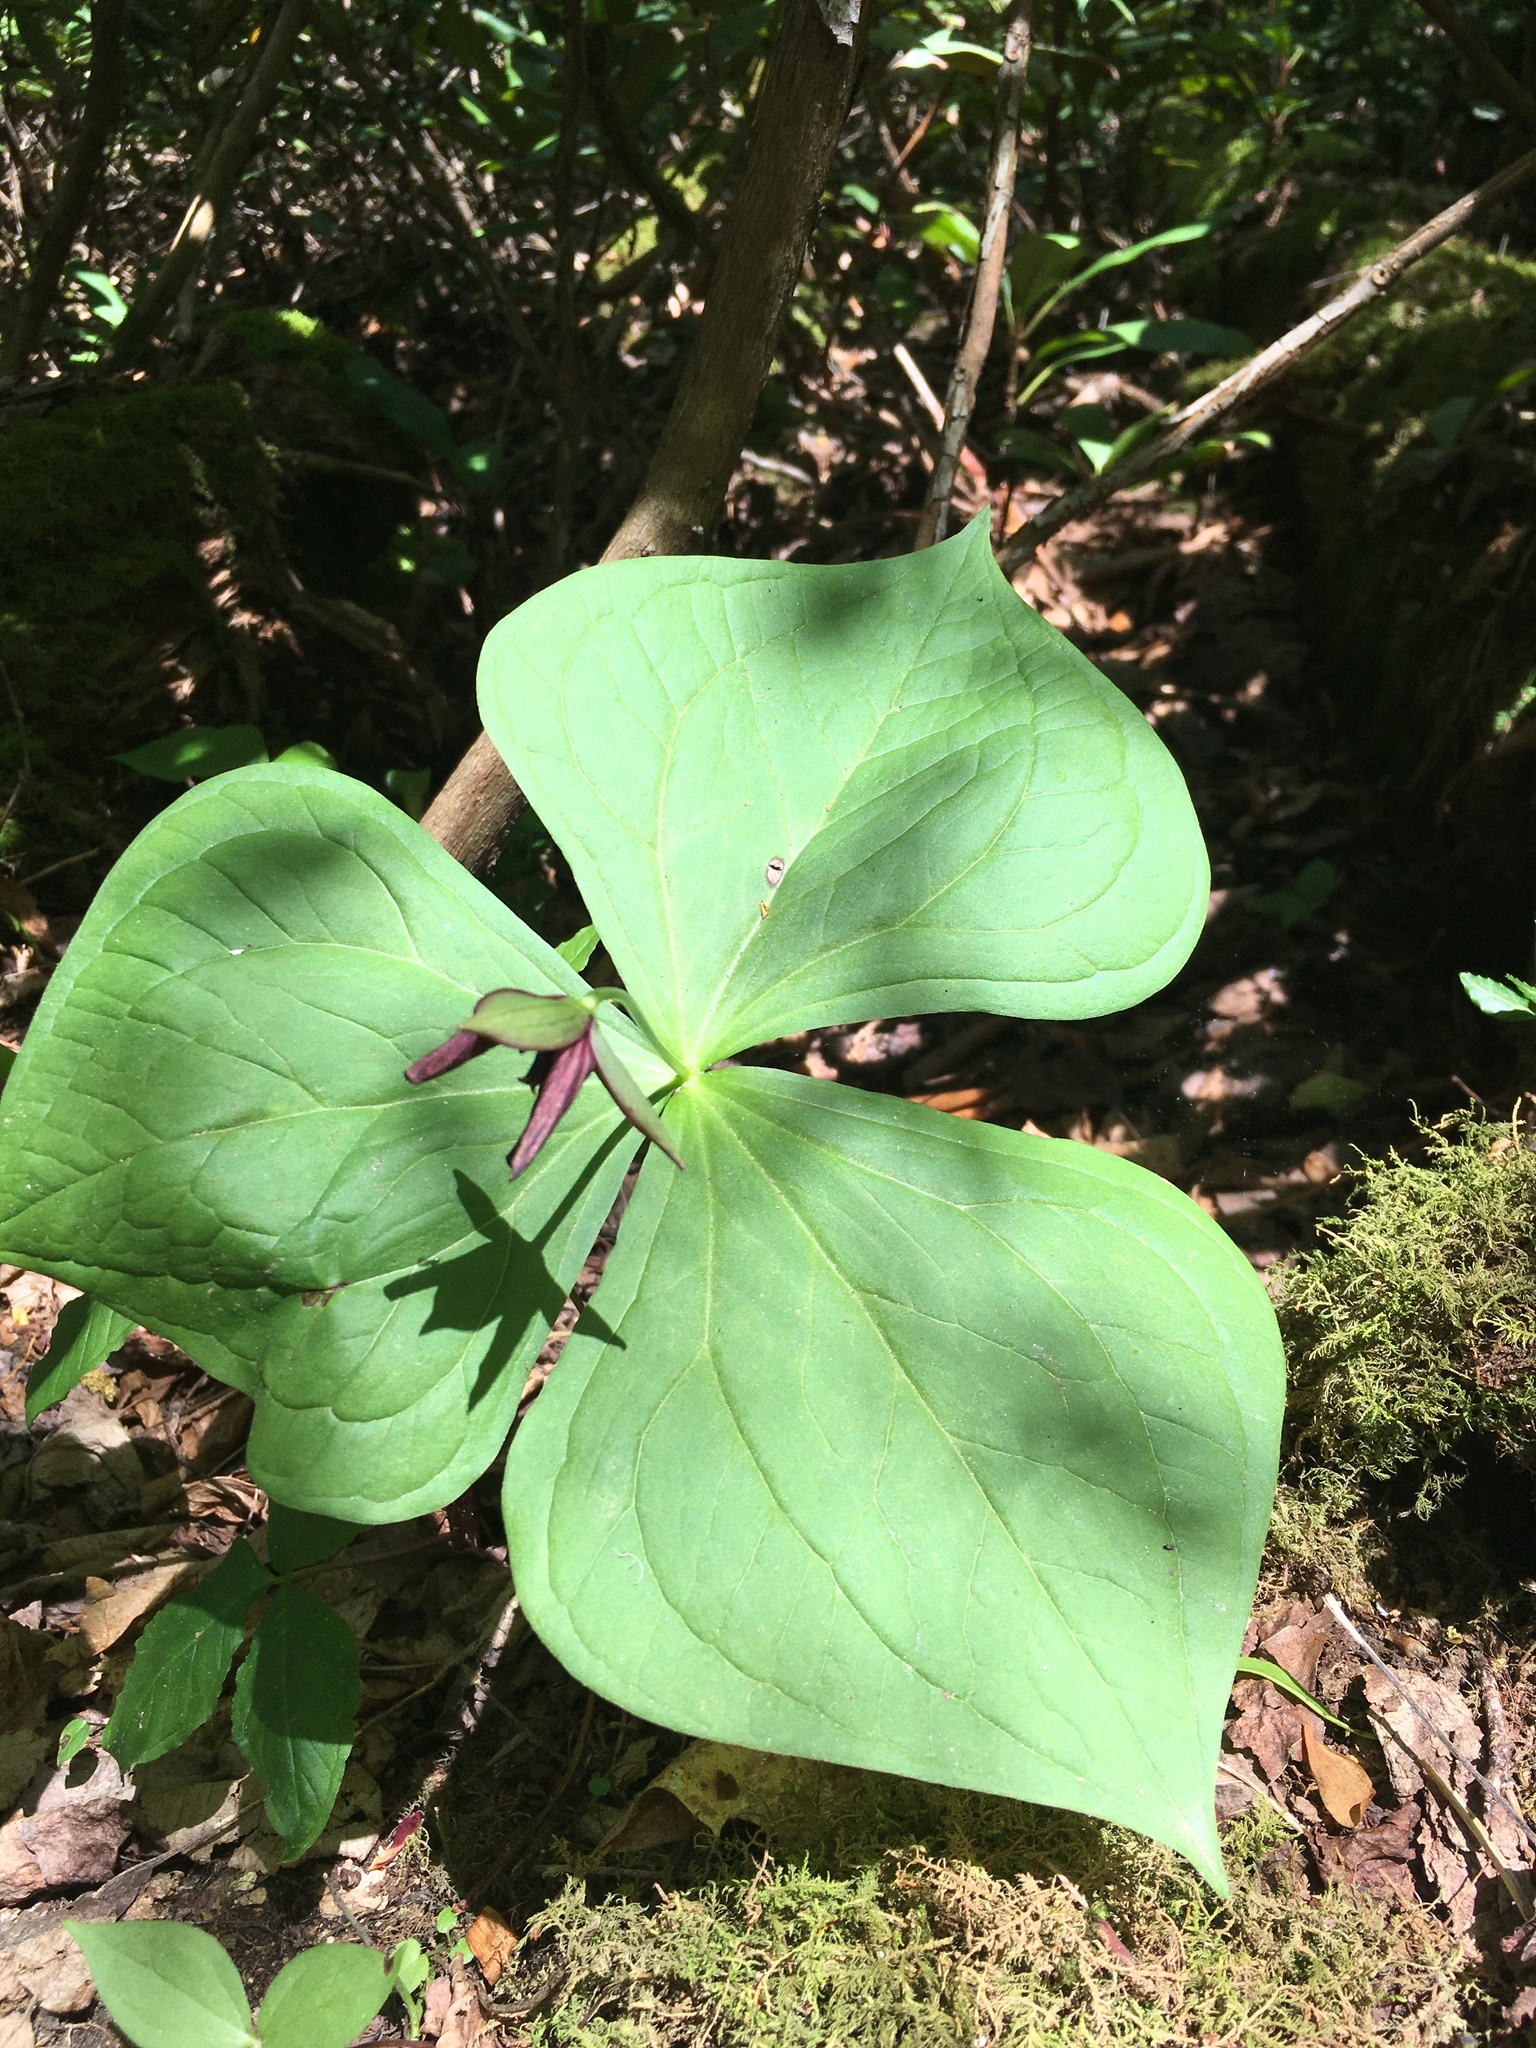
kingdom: Plantae
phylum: Tracheophyta
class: Liliopsida
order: Liliales
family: Melanthiaceae
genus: Trillium
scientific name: Trillium erectum
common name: Purple trillium
